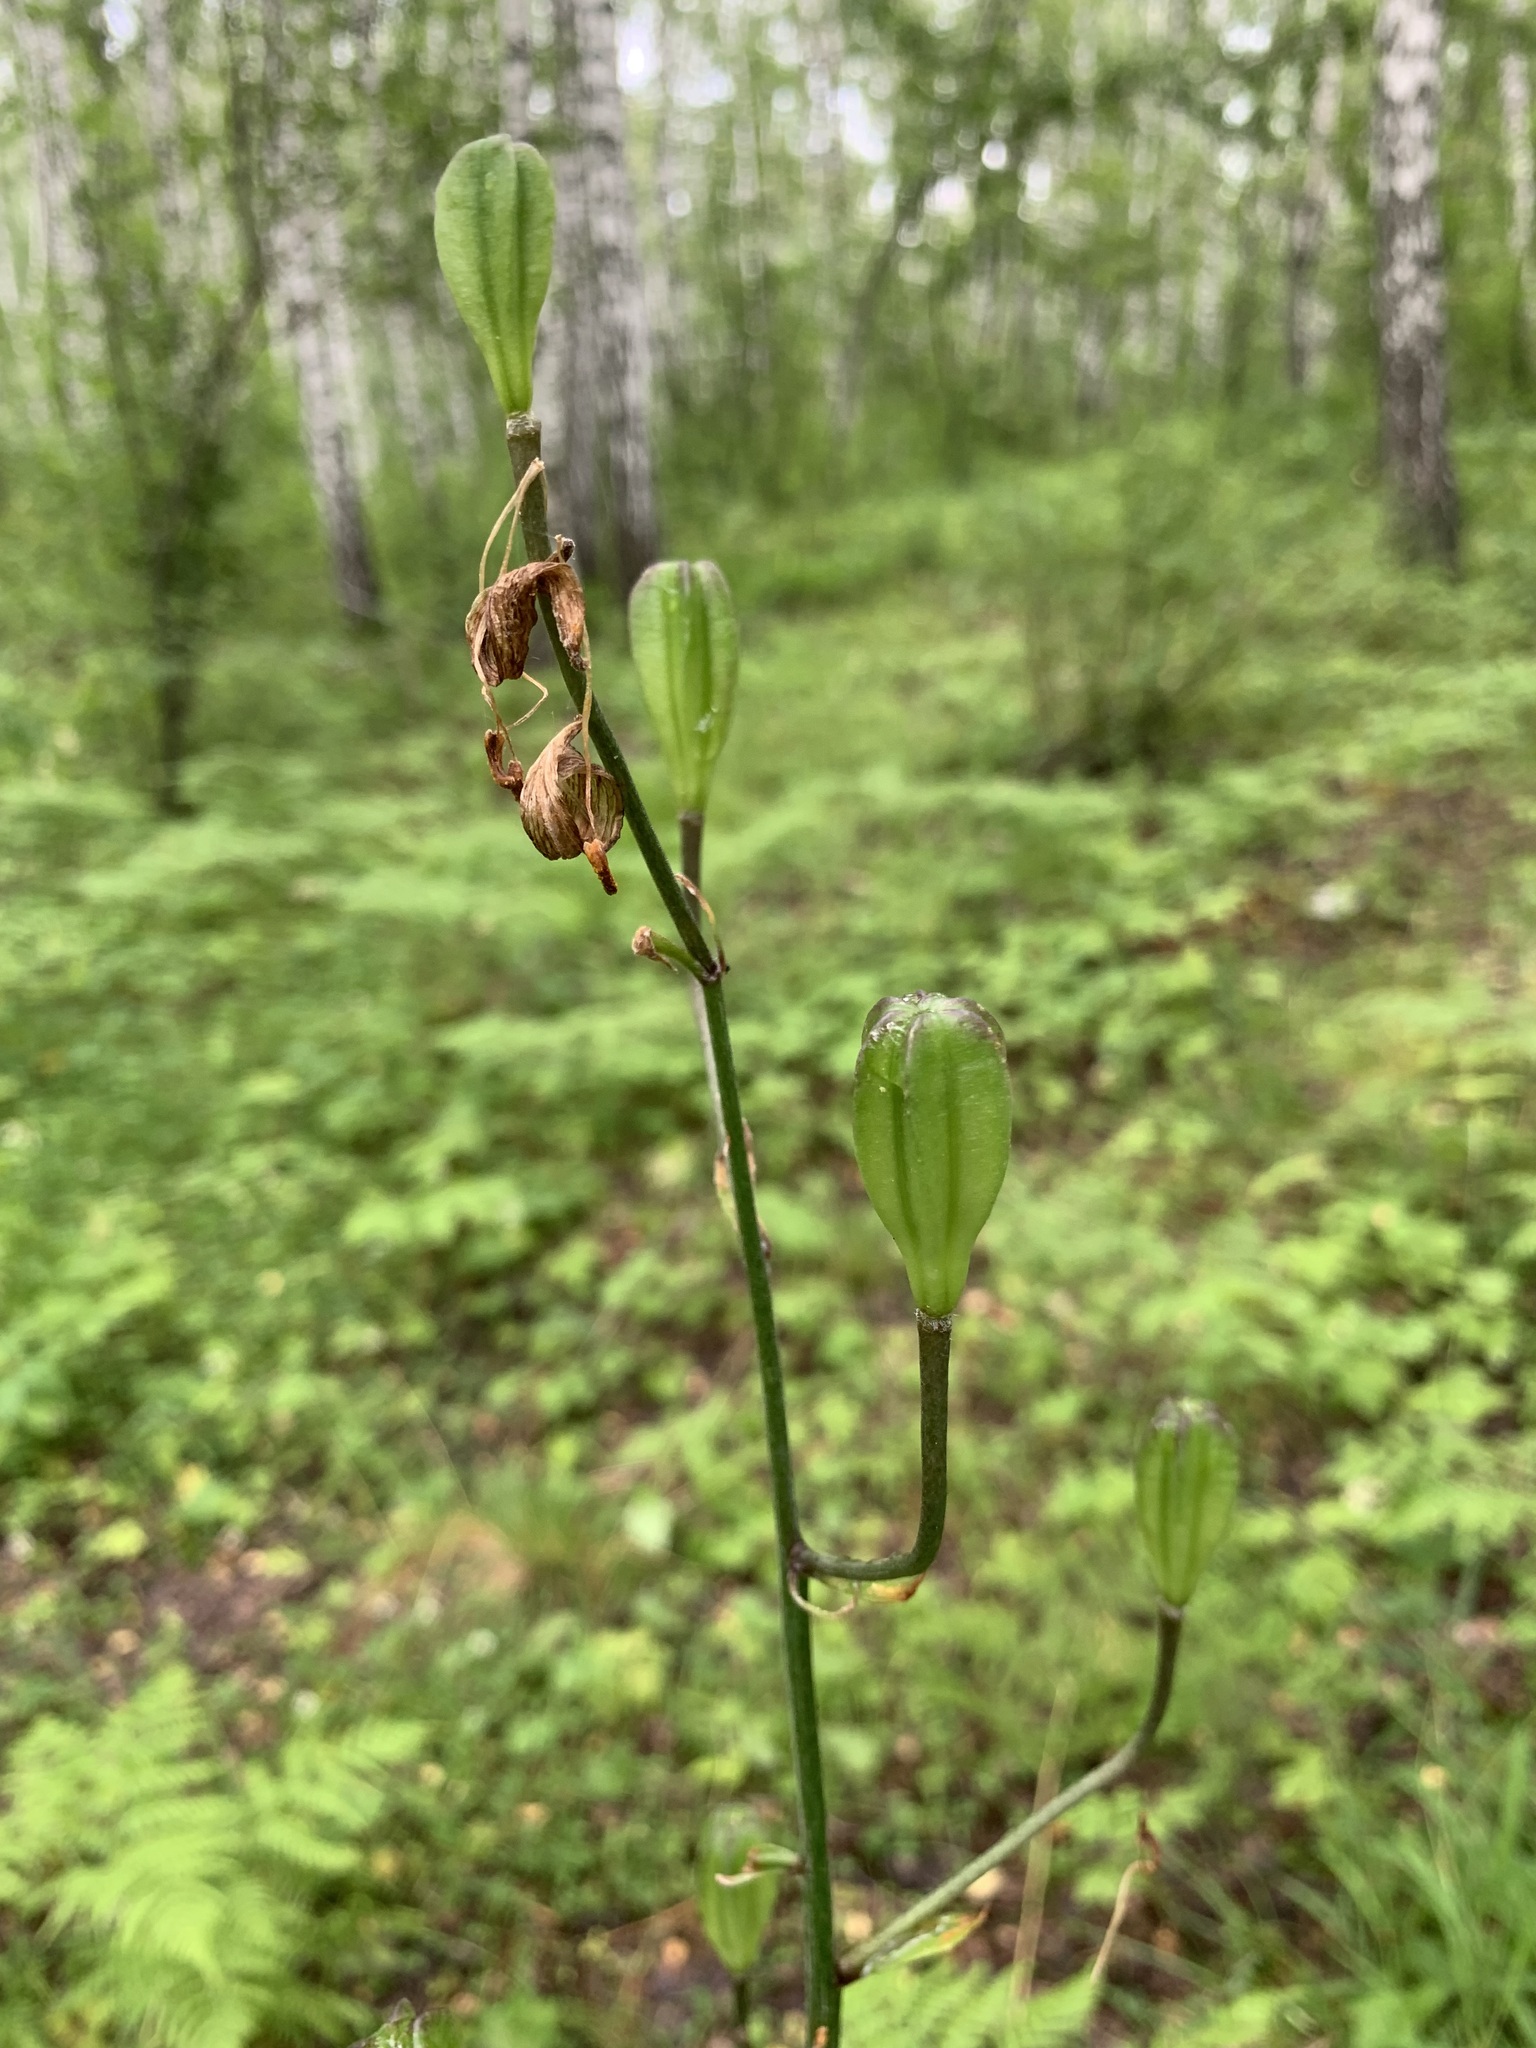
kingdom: Plantae
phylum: Tracheophyta
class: Liliopsida
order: Liliales
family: Liliaceae
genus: Lilium
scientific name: Lilium martagon
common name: Martagon lily
